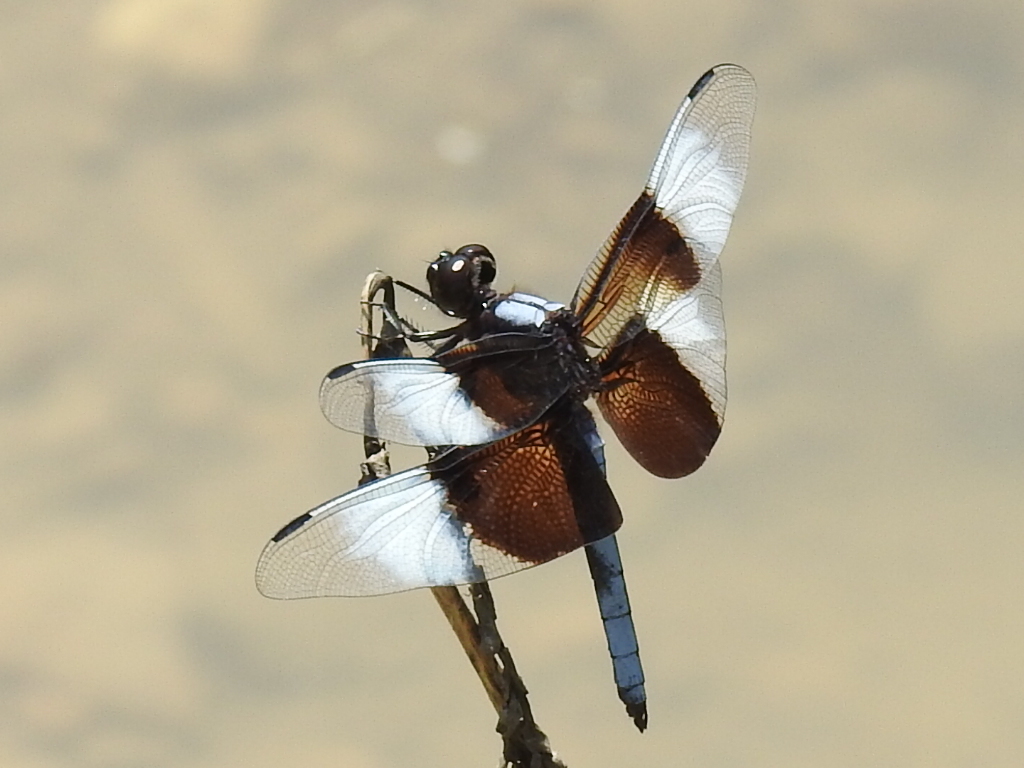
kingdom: Animalia
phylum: Arthropoda
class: Insecta
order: Odonata
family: Libellulidae
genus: Libellula
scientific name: Libellula luctuosa
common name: Widow skimmer
